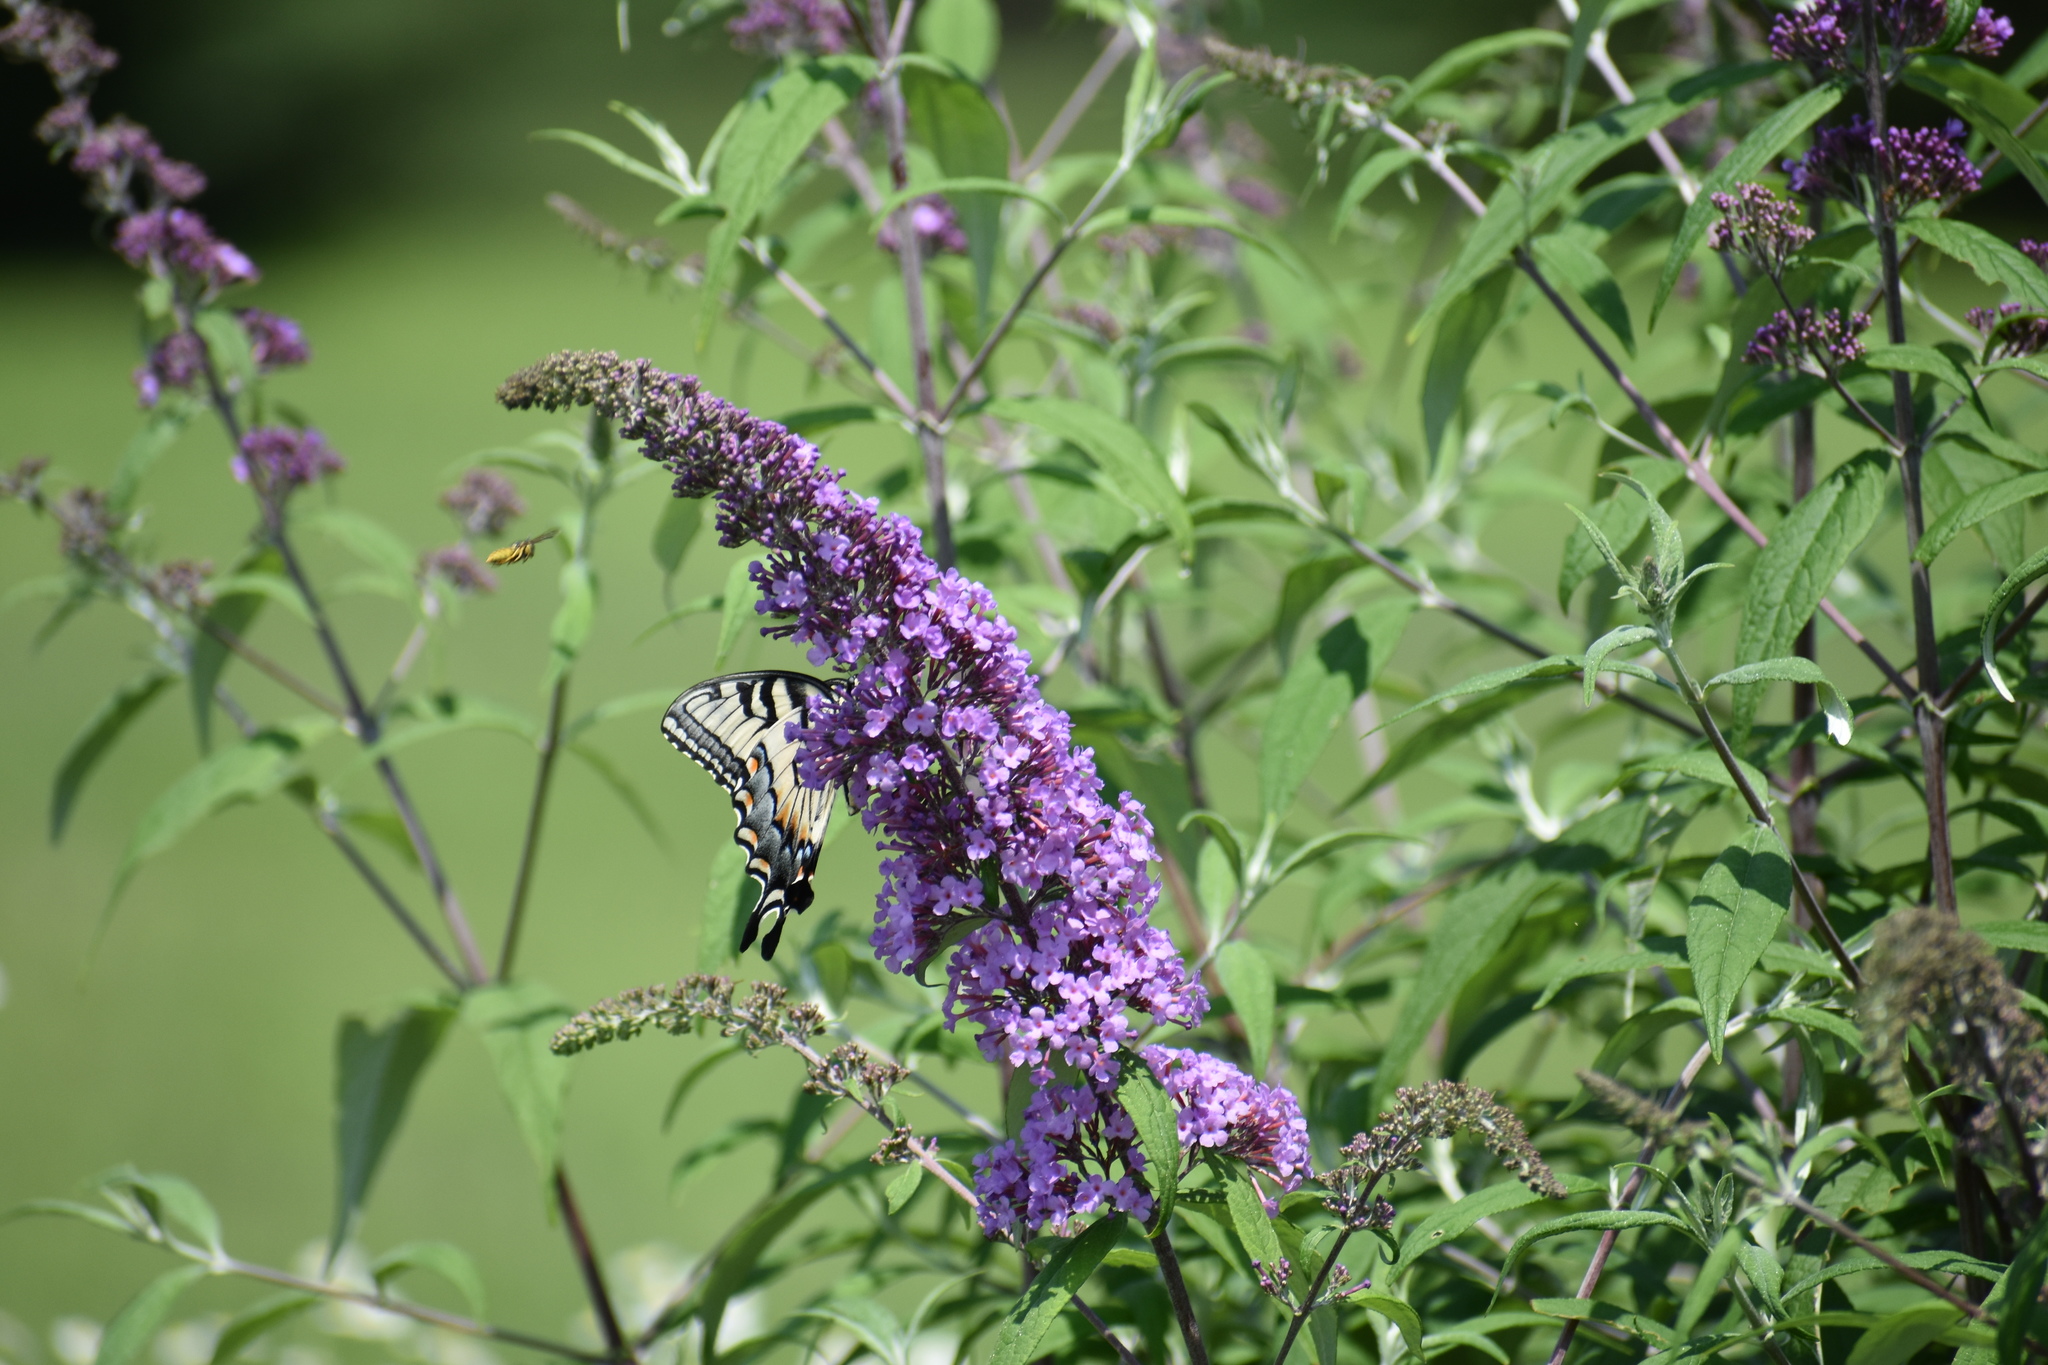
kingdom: Animalia
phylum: Arthropoda
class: Insecta
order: Lepidoptera
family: Papilionidae
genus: Papilio
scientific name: Papilio glaucus
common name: Tiger swallowtail
